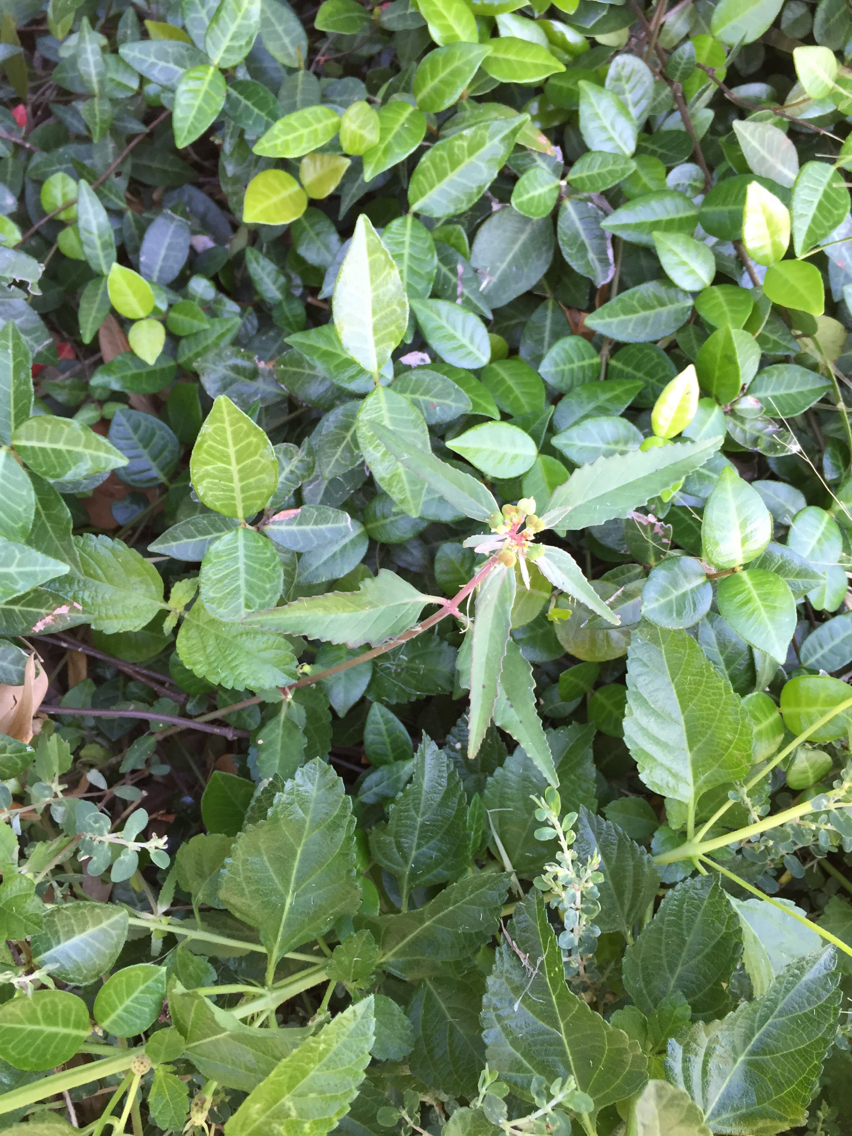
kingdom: Plantae
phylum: Tracheophyta
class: Magnoliopsida
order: Malpighiales
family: Euphorbiaceae
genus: Euphorbia
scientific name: Euphorbia dentata
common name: Dentate spurge
